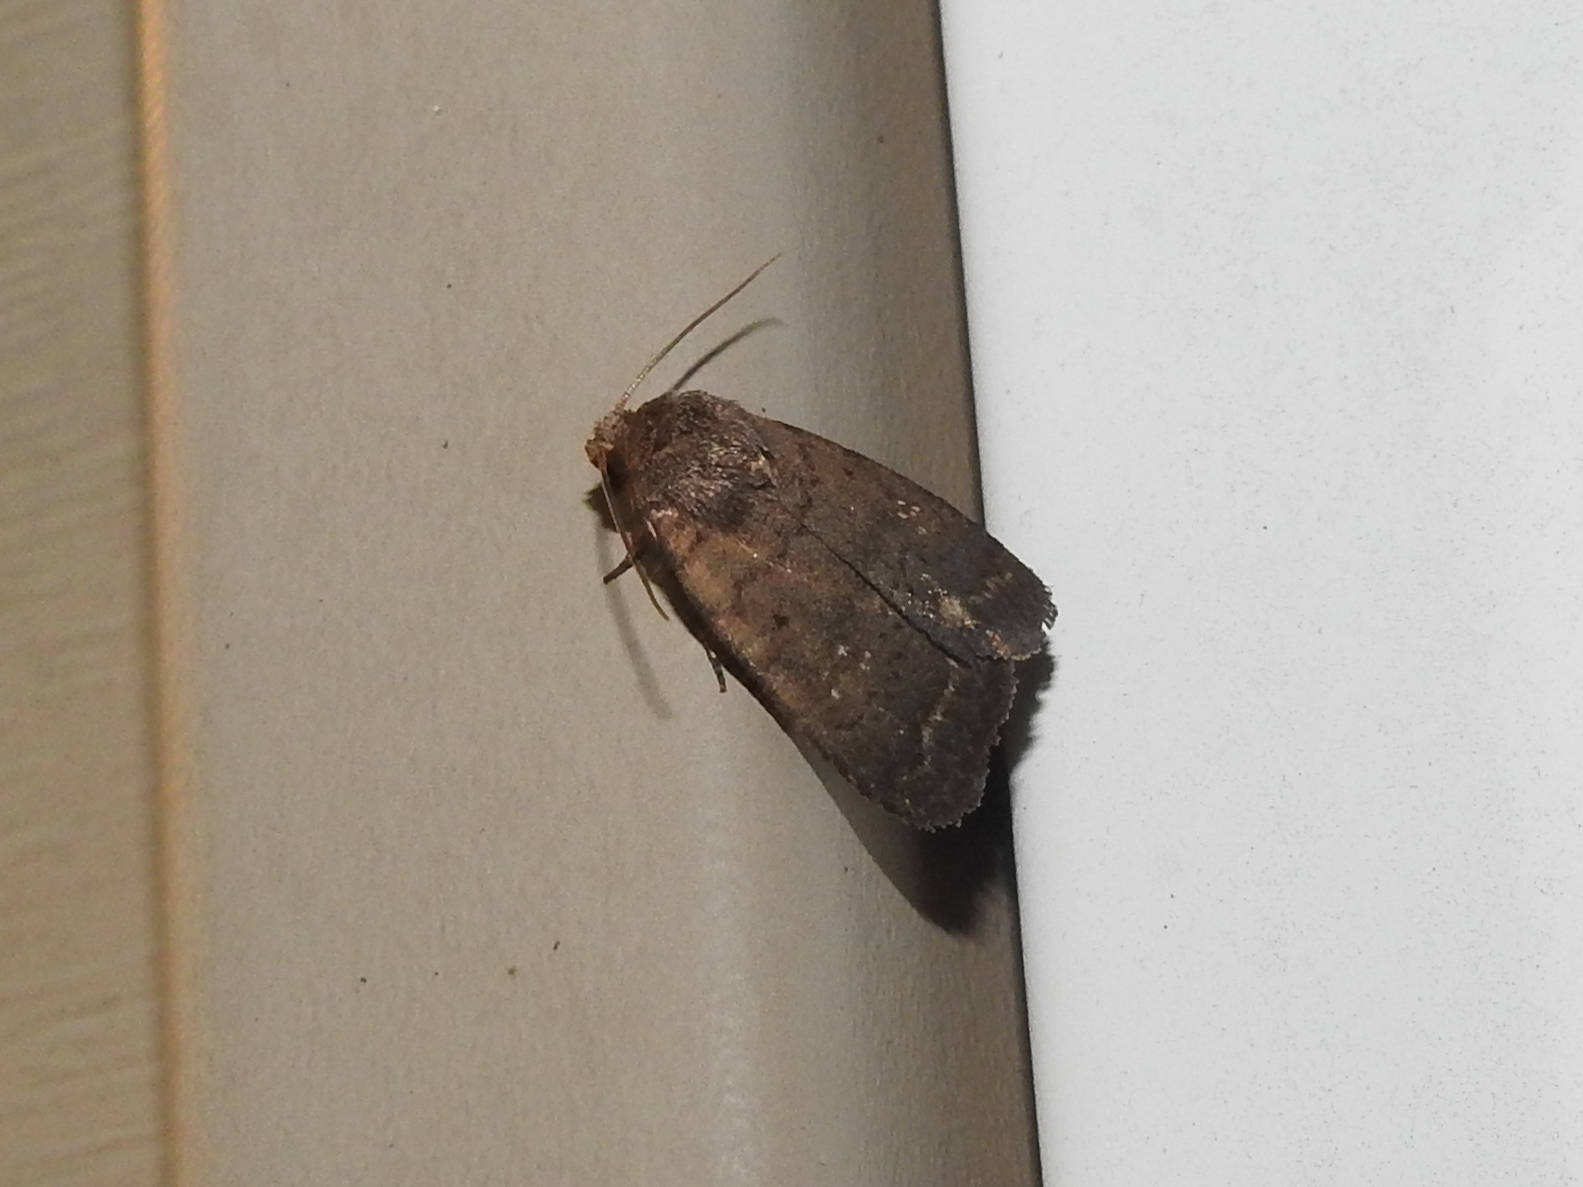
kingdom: Animalia
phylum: Arthropoda
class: Insecta
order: Lepidoptera
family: Noctuidae
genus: Athetis
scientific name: Athetis tarda
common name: Slowpoke moth
